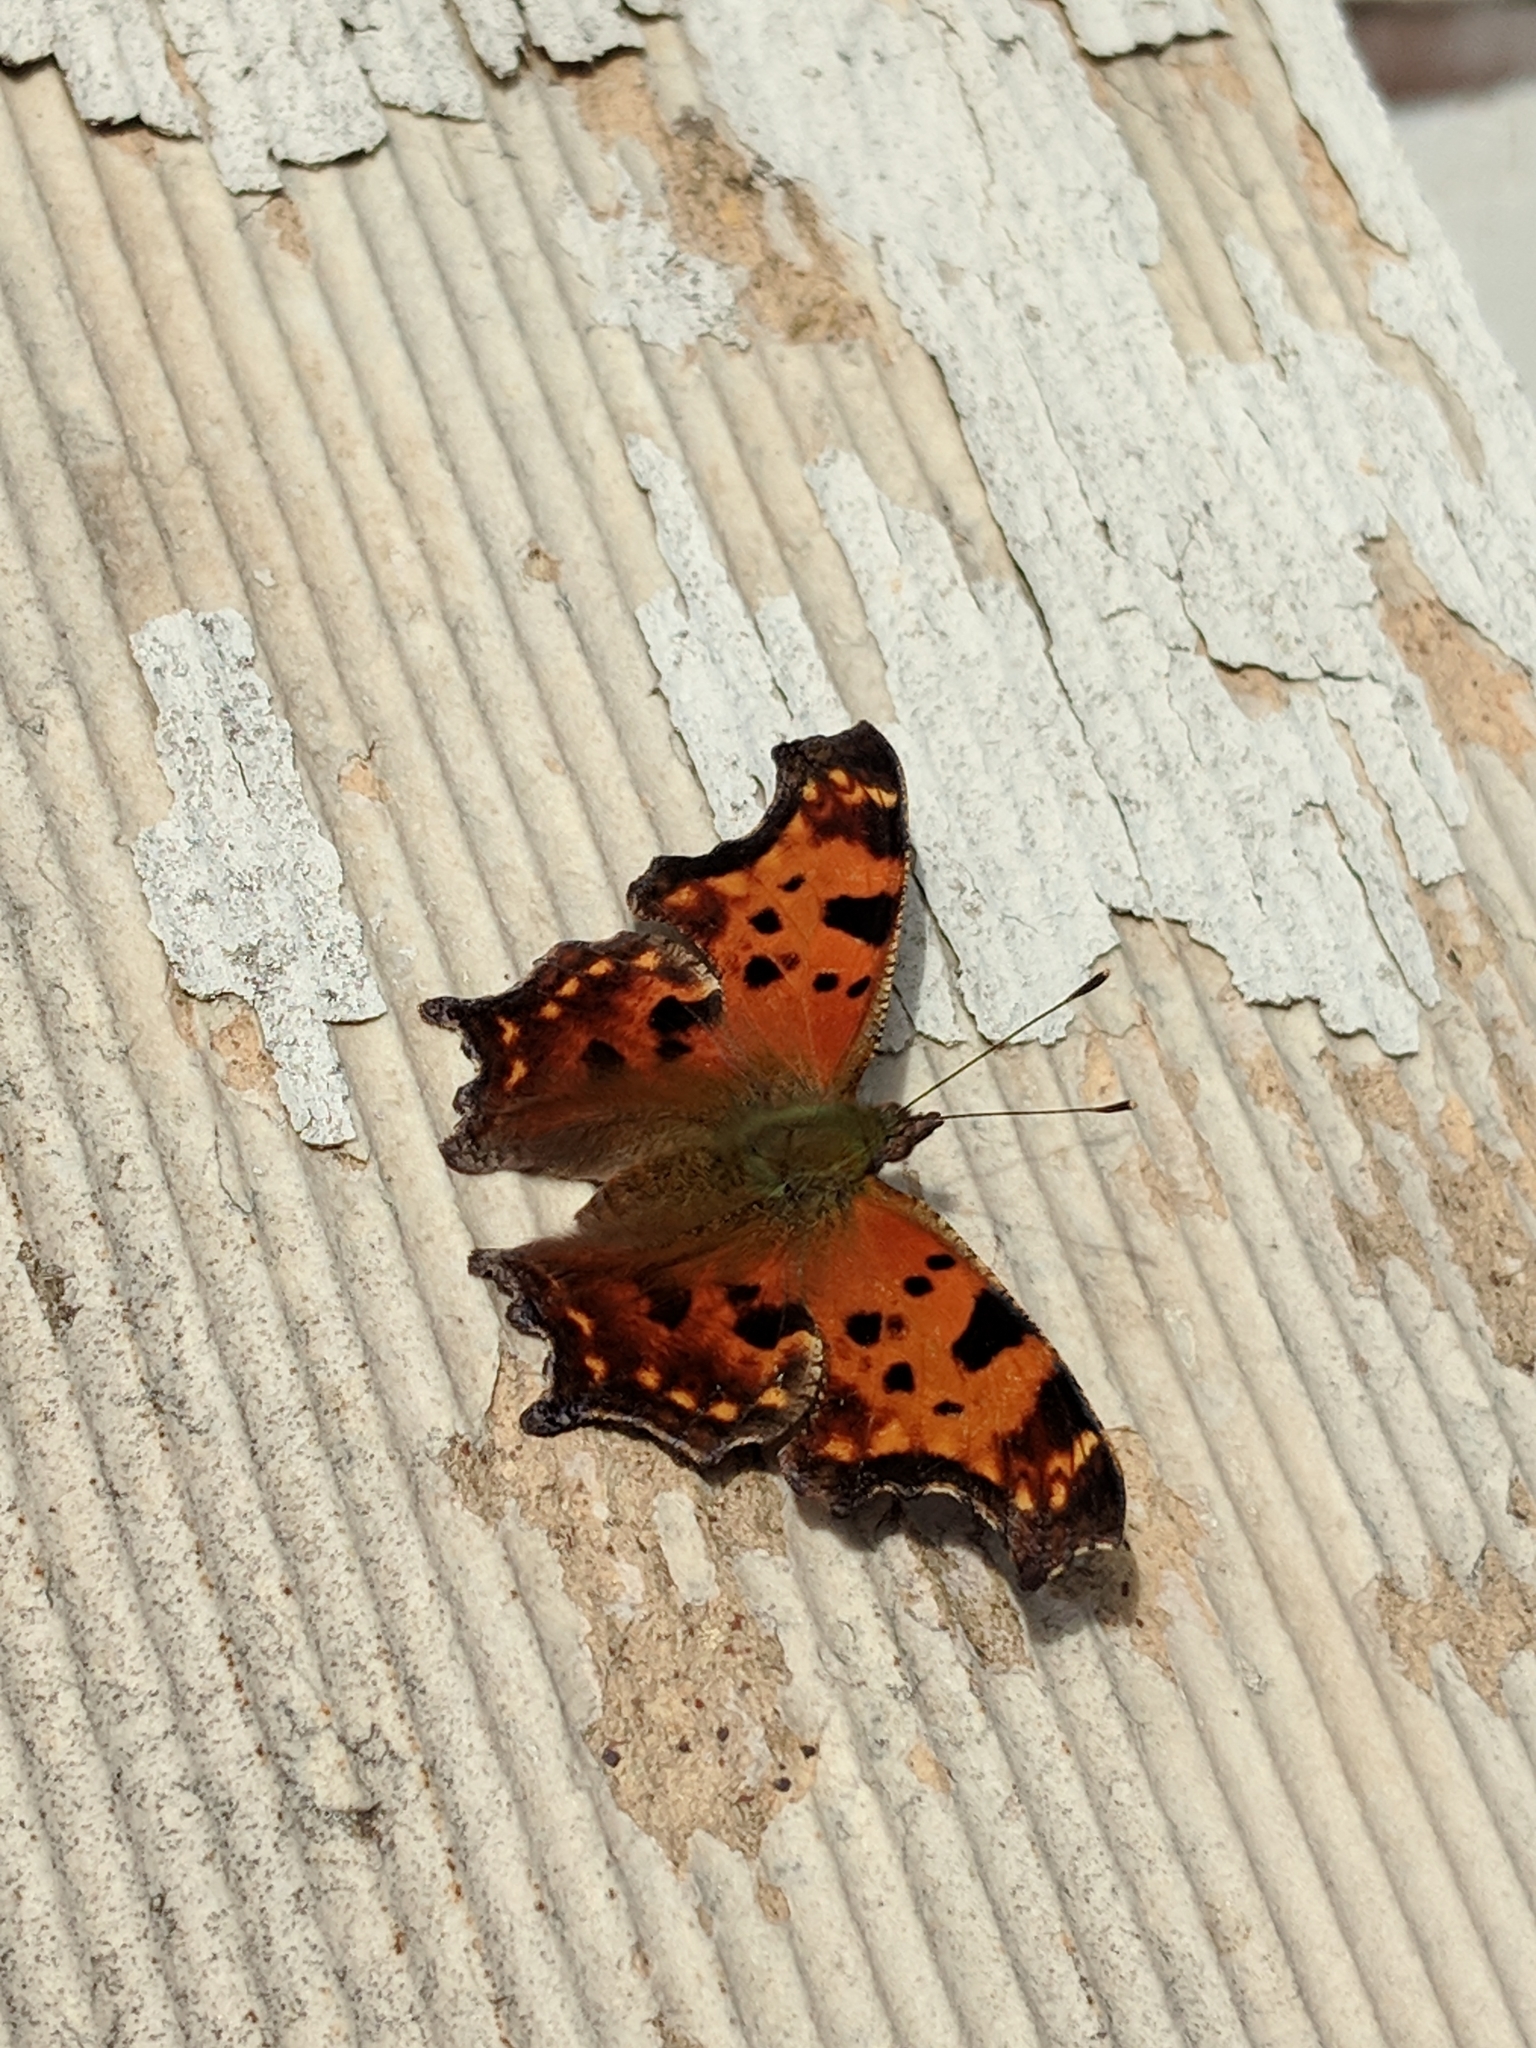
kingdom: Animalia
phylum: Arthropoda
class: Insecta
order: Lepidoptera
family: Nymphalidae
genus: Polygonia
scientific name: Polygonia comma
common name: Eastern comma
